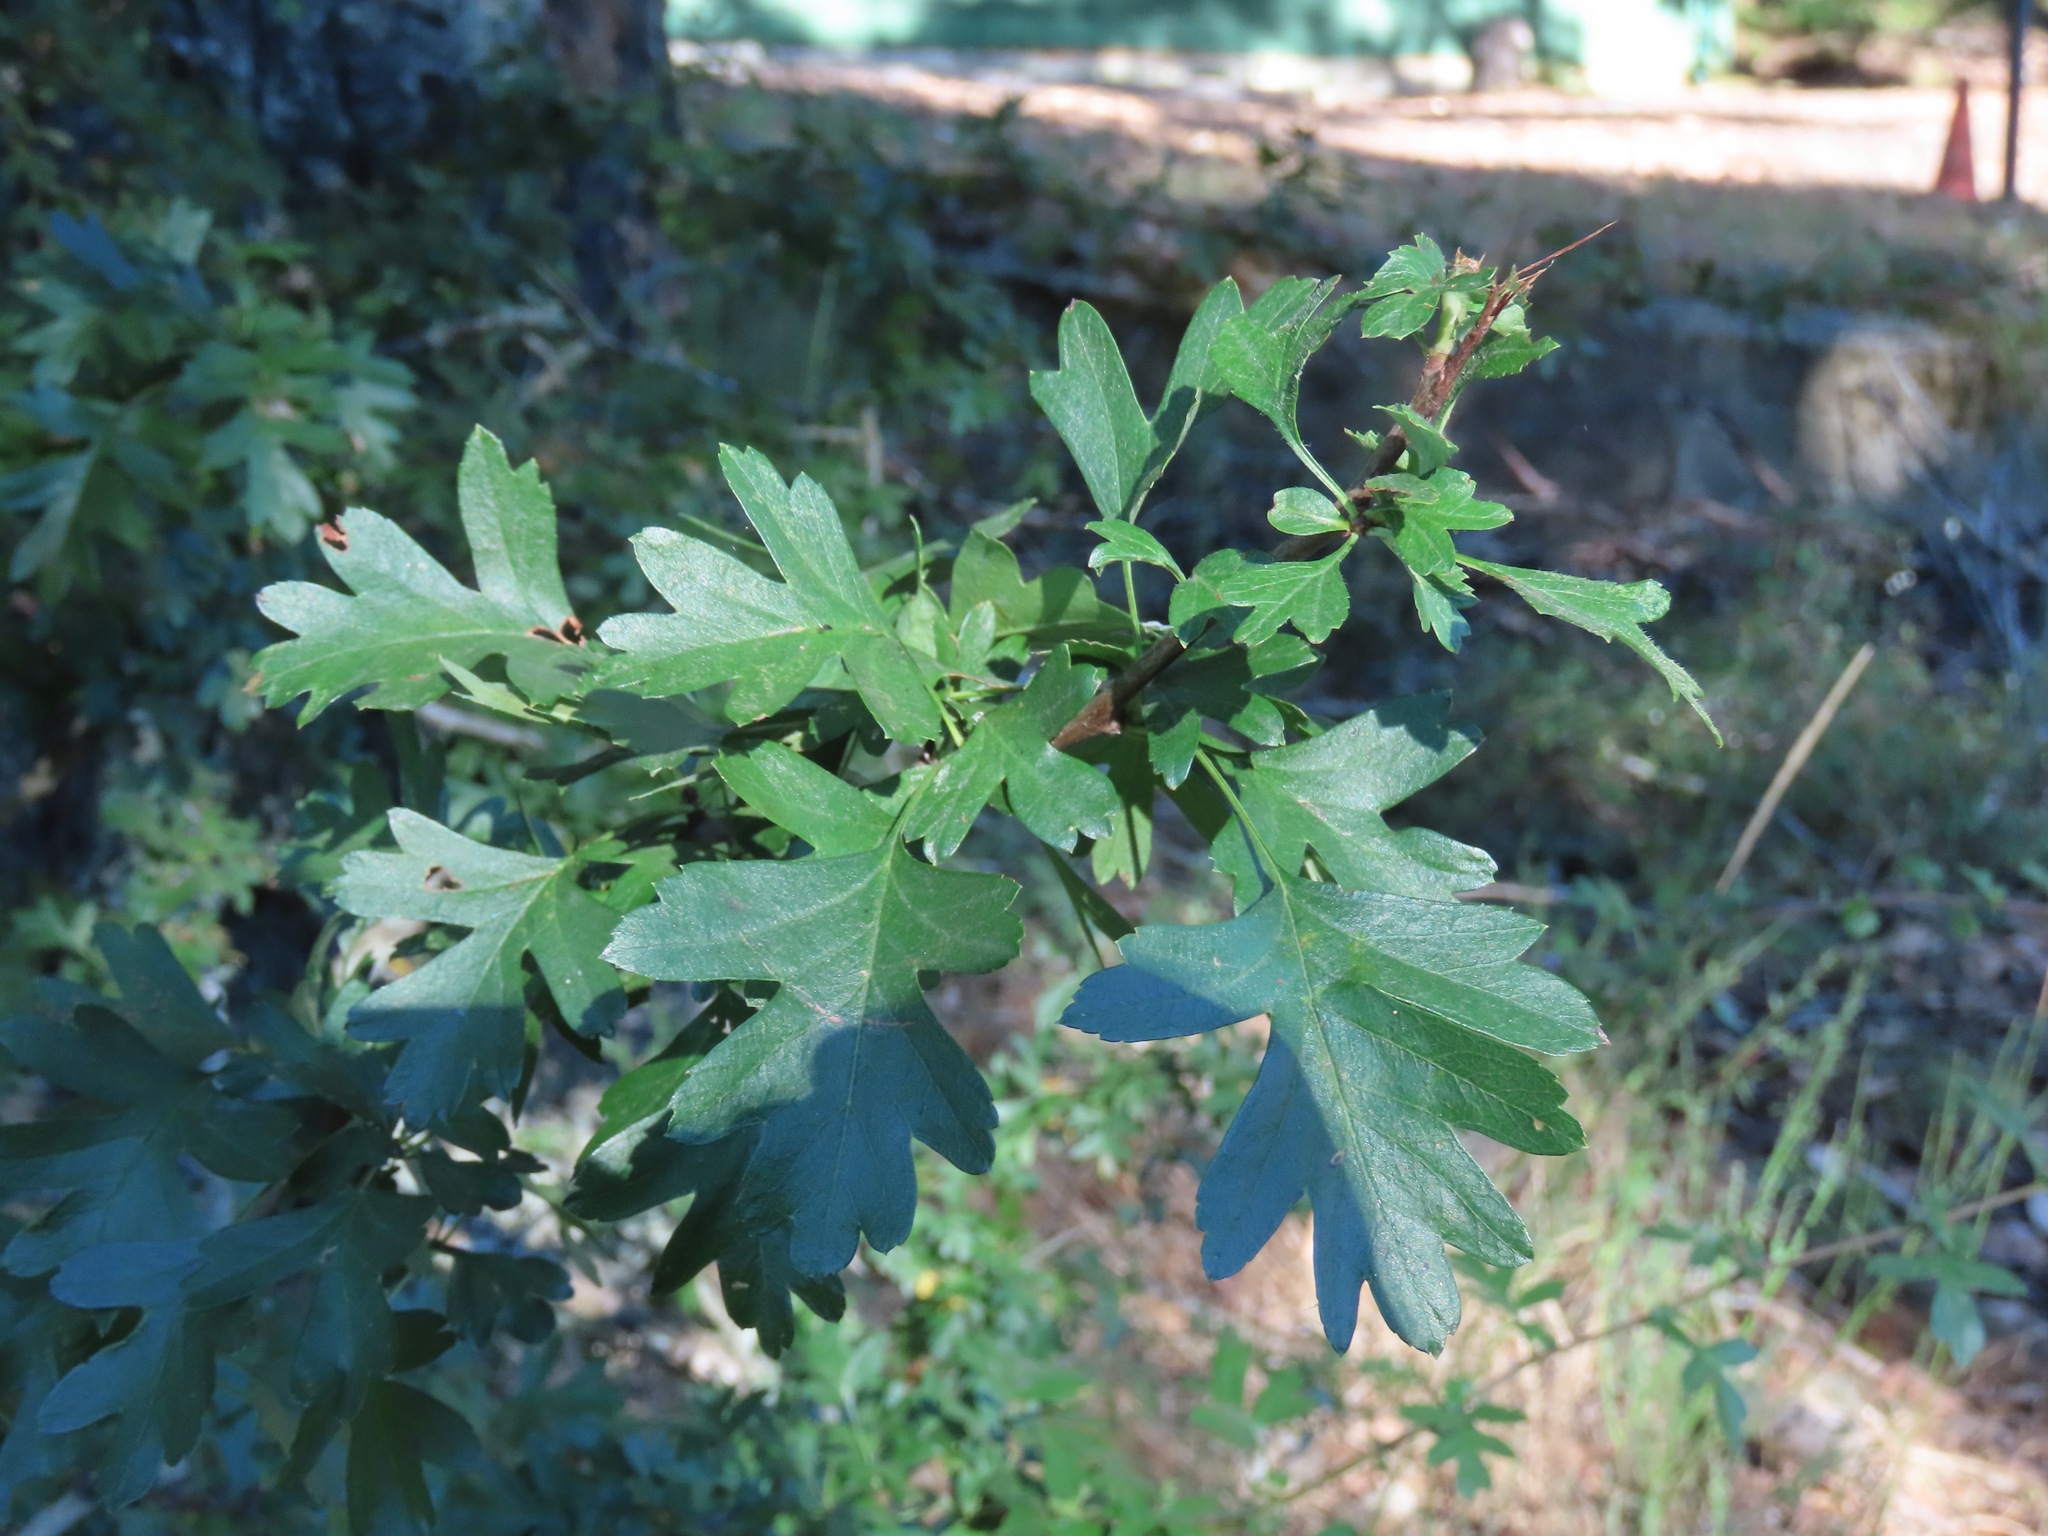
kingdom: Plantae
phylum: Tracheophyta
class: Magnoliopsida
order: Rosales
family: Rosaceae
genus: Crataegus
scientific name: Crataegus monogyna
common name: Hawthorn
